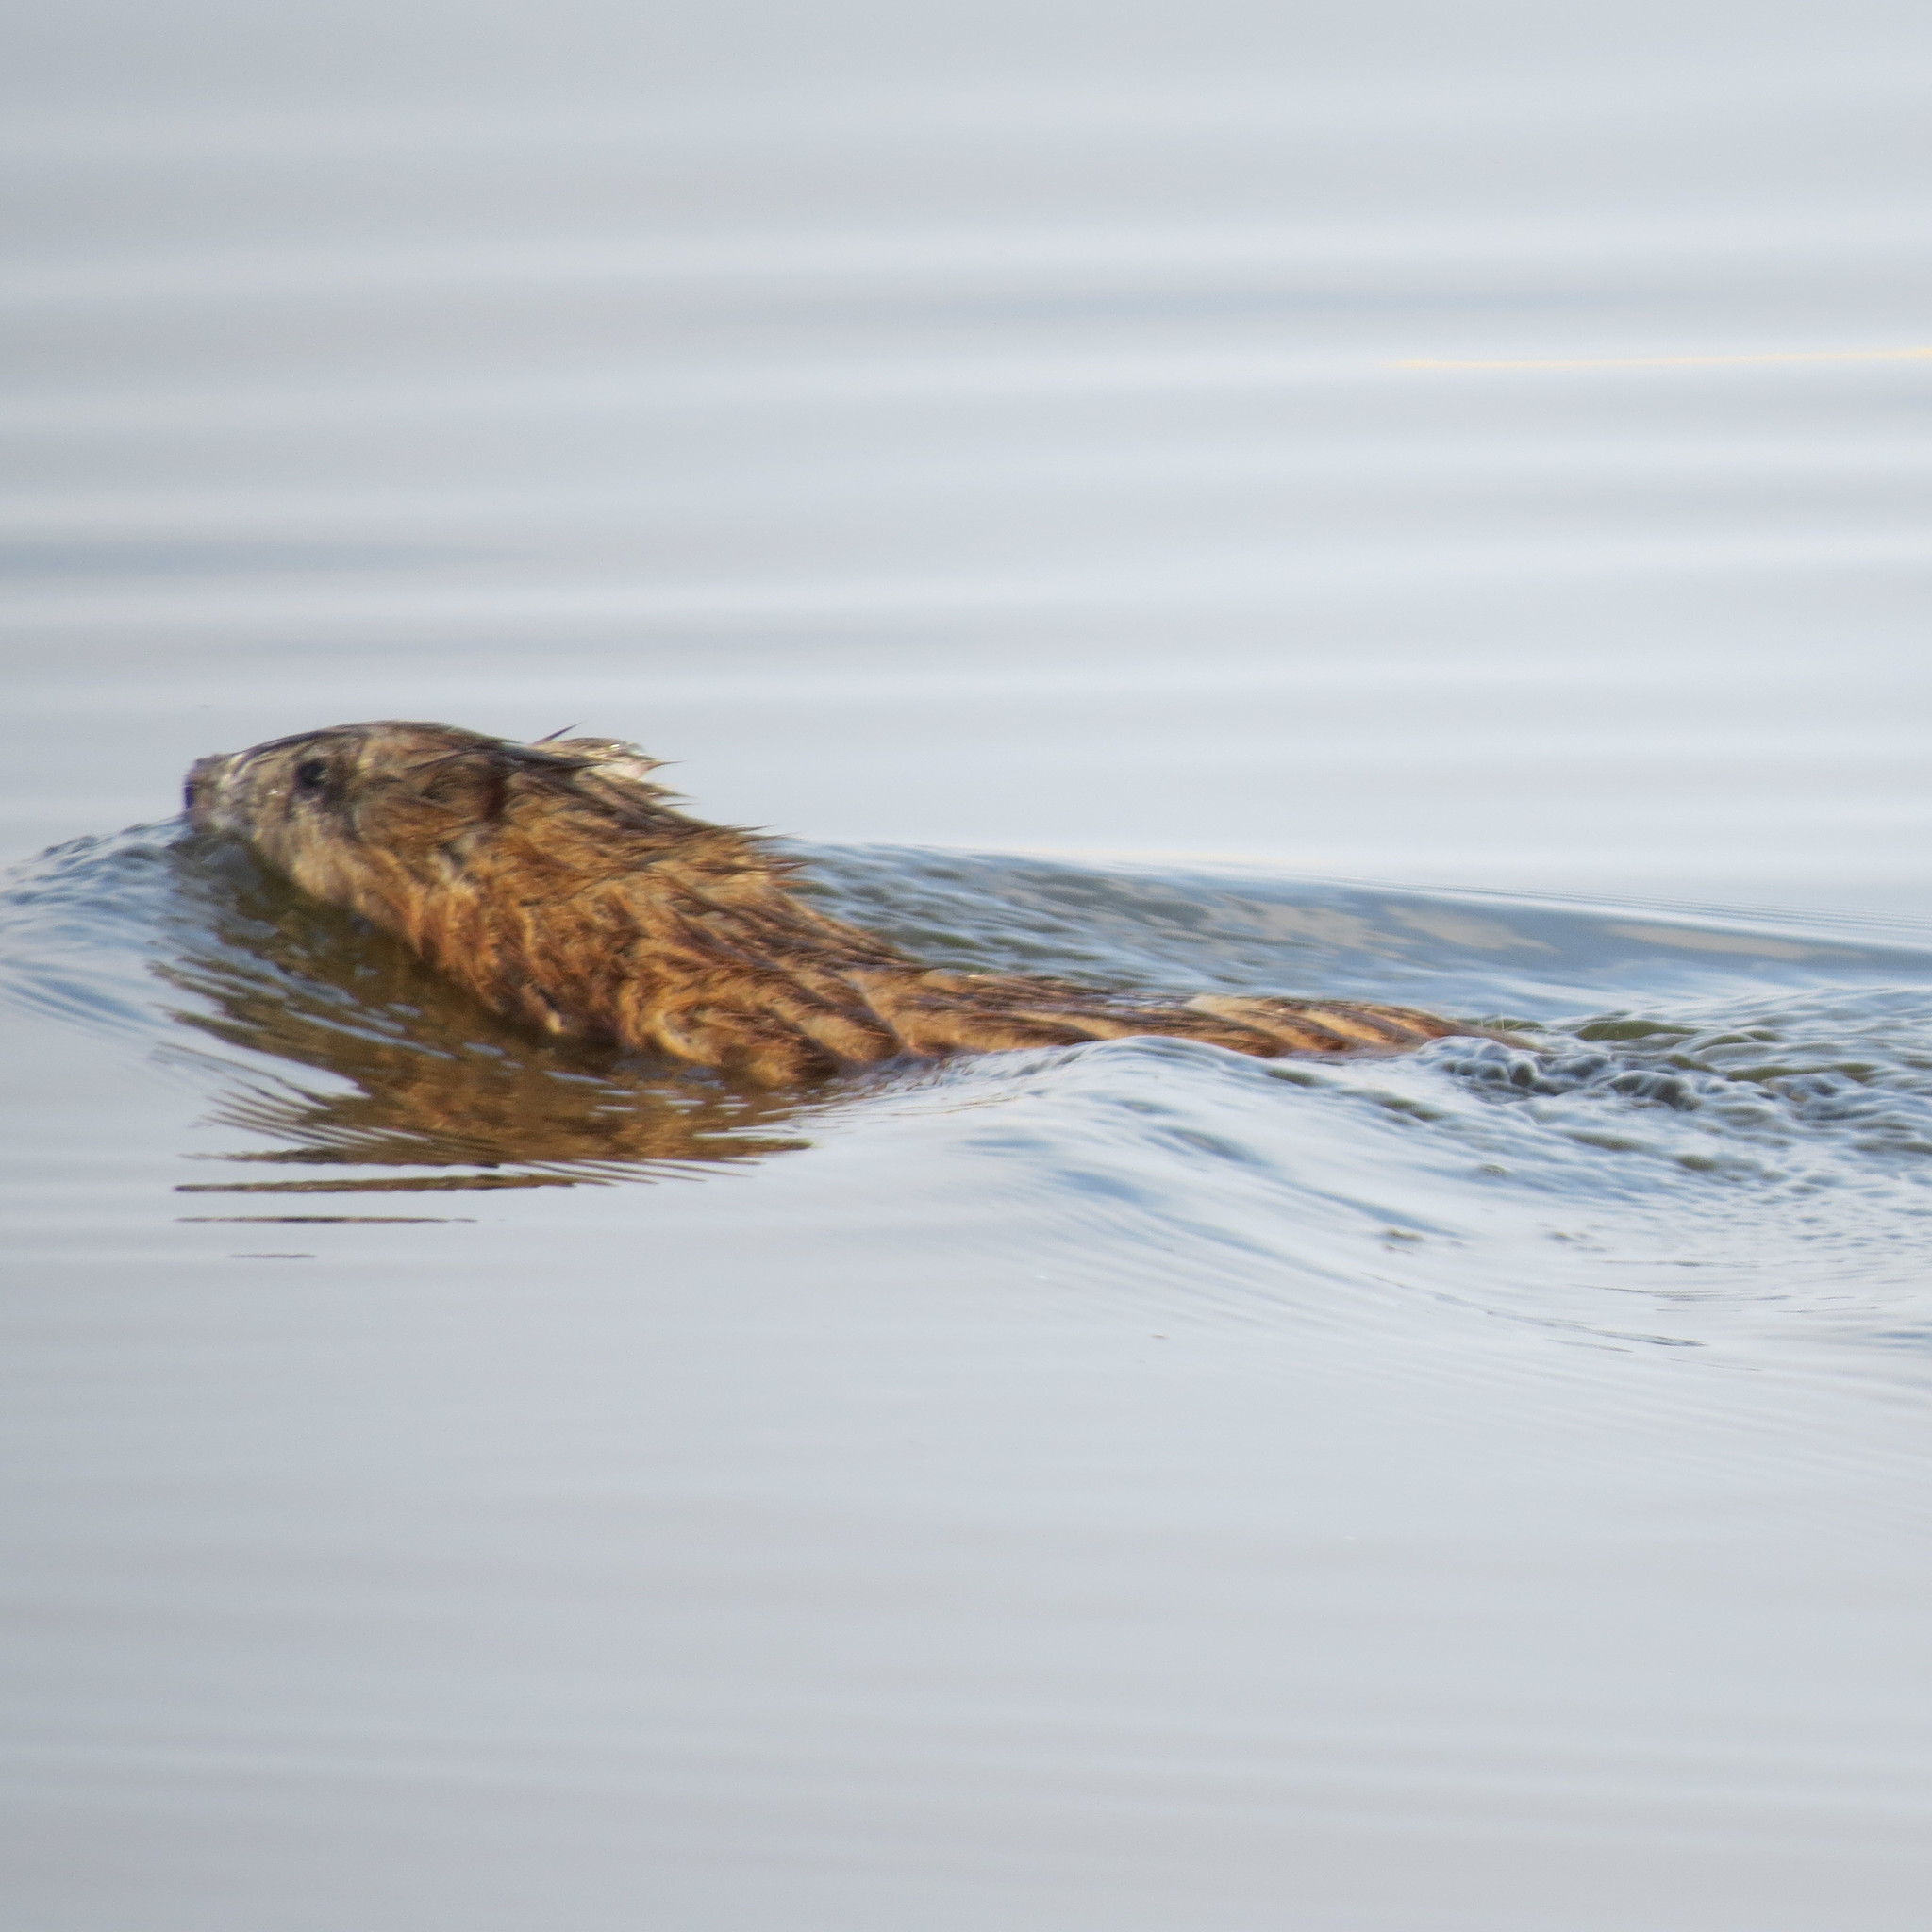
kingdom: Animalia
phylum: Chordata
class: Mammalia
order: Rodentia
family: Cricetidae
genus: Ondatra
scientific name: Ondatra zibethicus
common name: Muskrat
